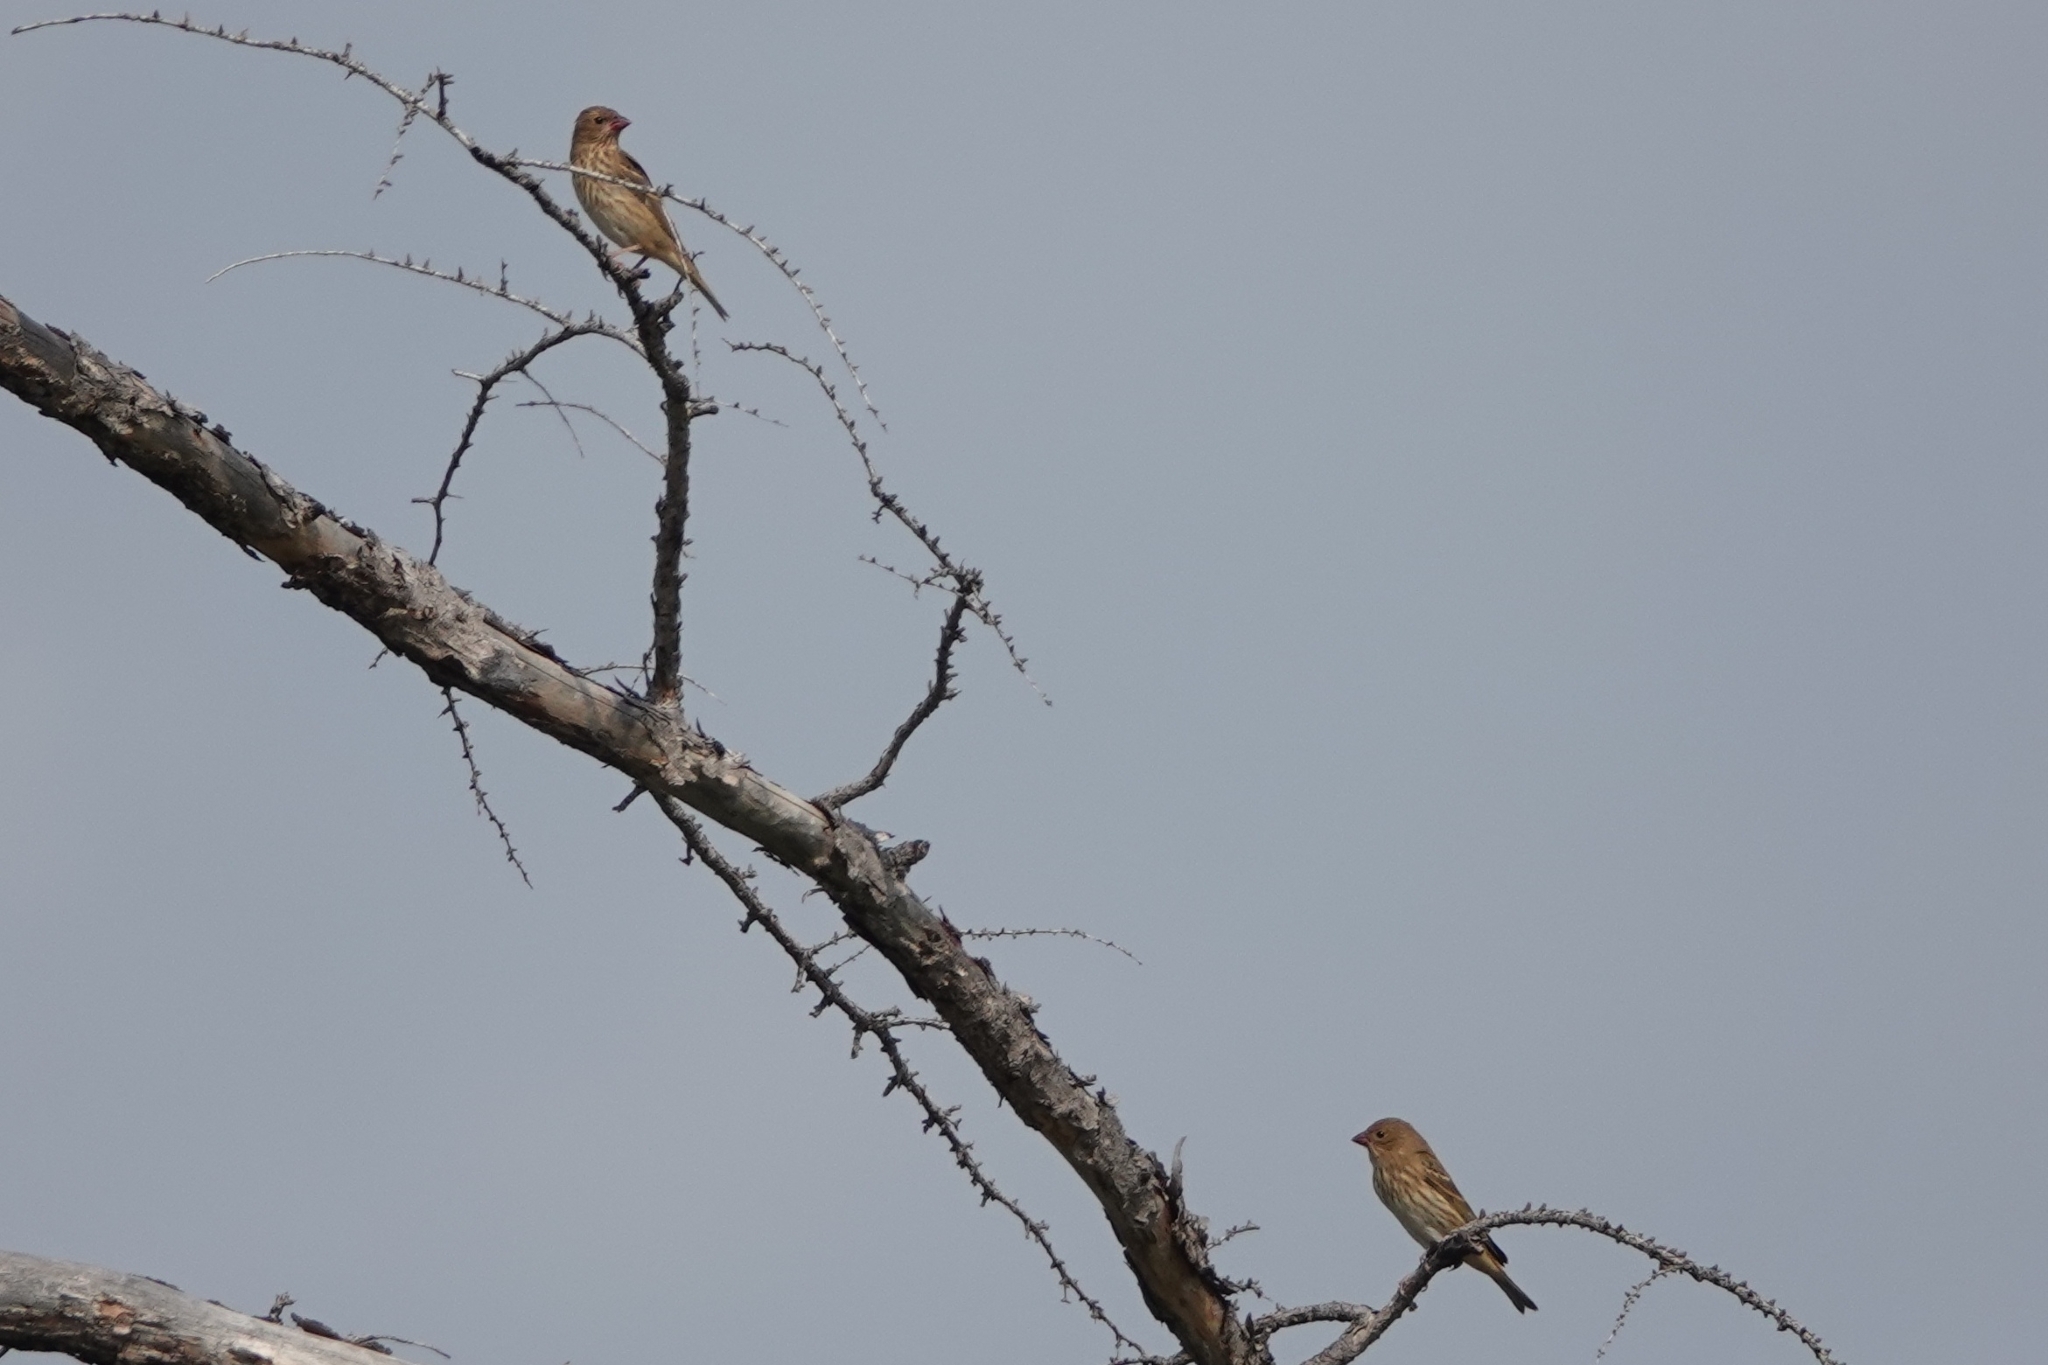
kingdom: Animalia
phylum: Chordata
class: Aves
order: Passeriformes
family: Fringillidae
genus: Carpodacus
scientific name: Carpodacus erythrinus
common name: Common rosefinch
